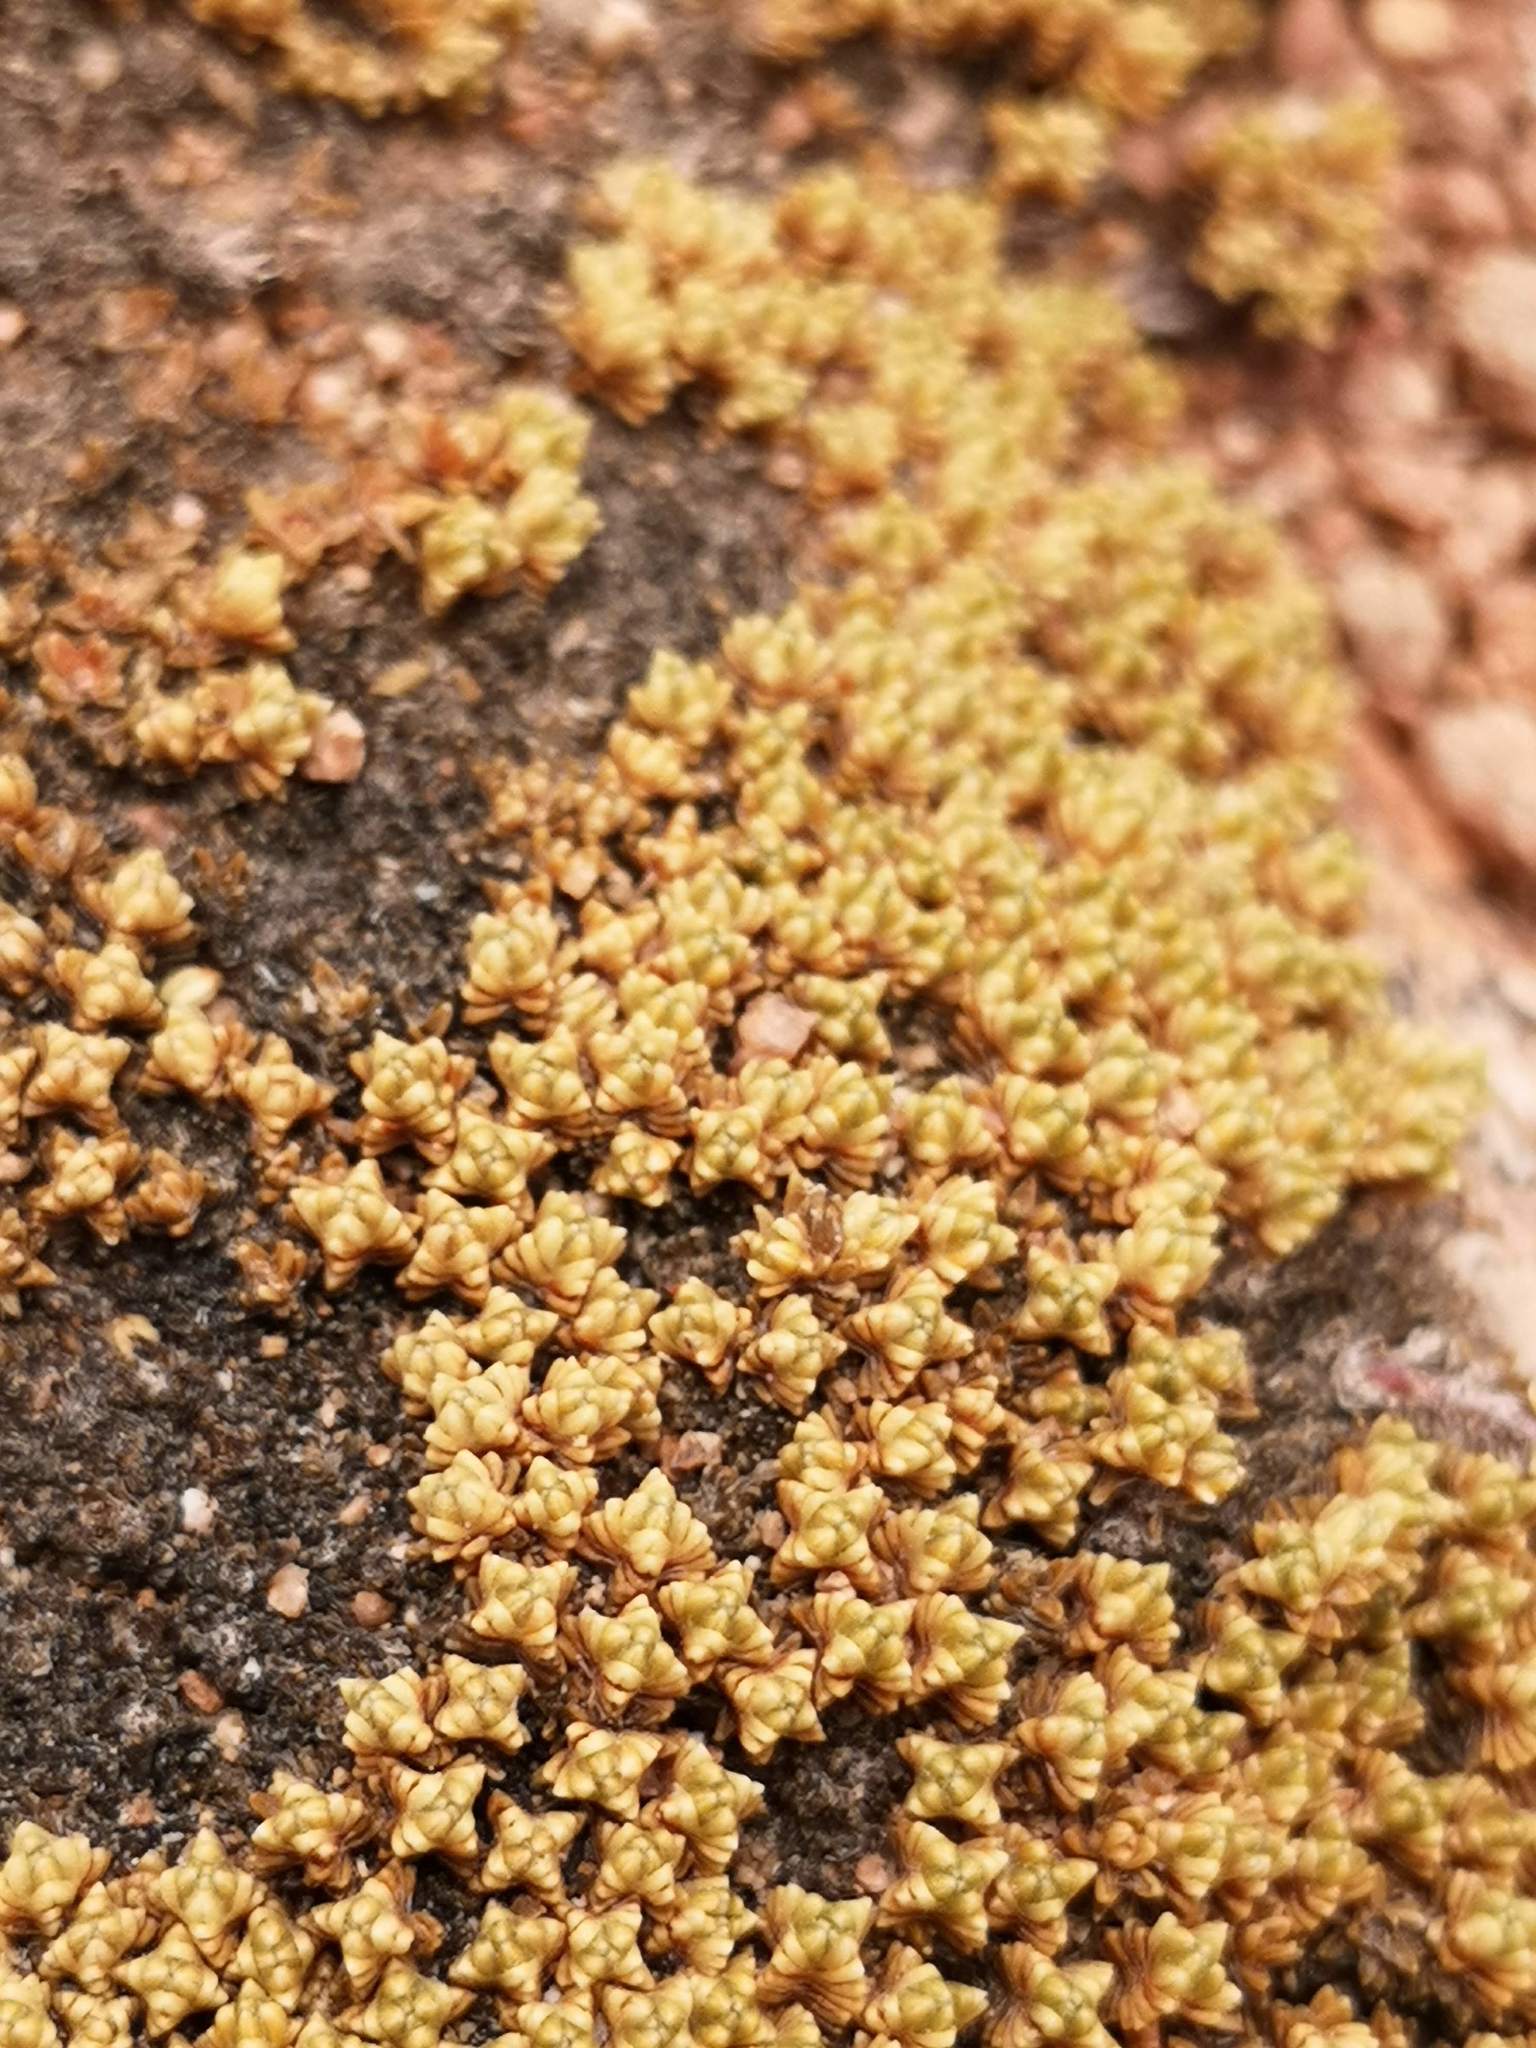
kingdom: Plantae
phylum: Tracheophyta
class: Magnoliopsida
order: Caryophyllales
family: Frankeniaceae
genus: Frankenia
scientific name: Frankenia triandra
